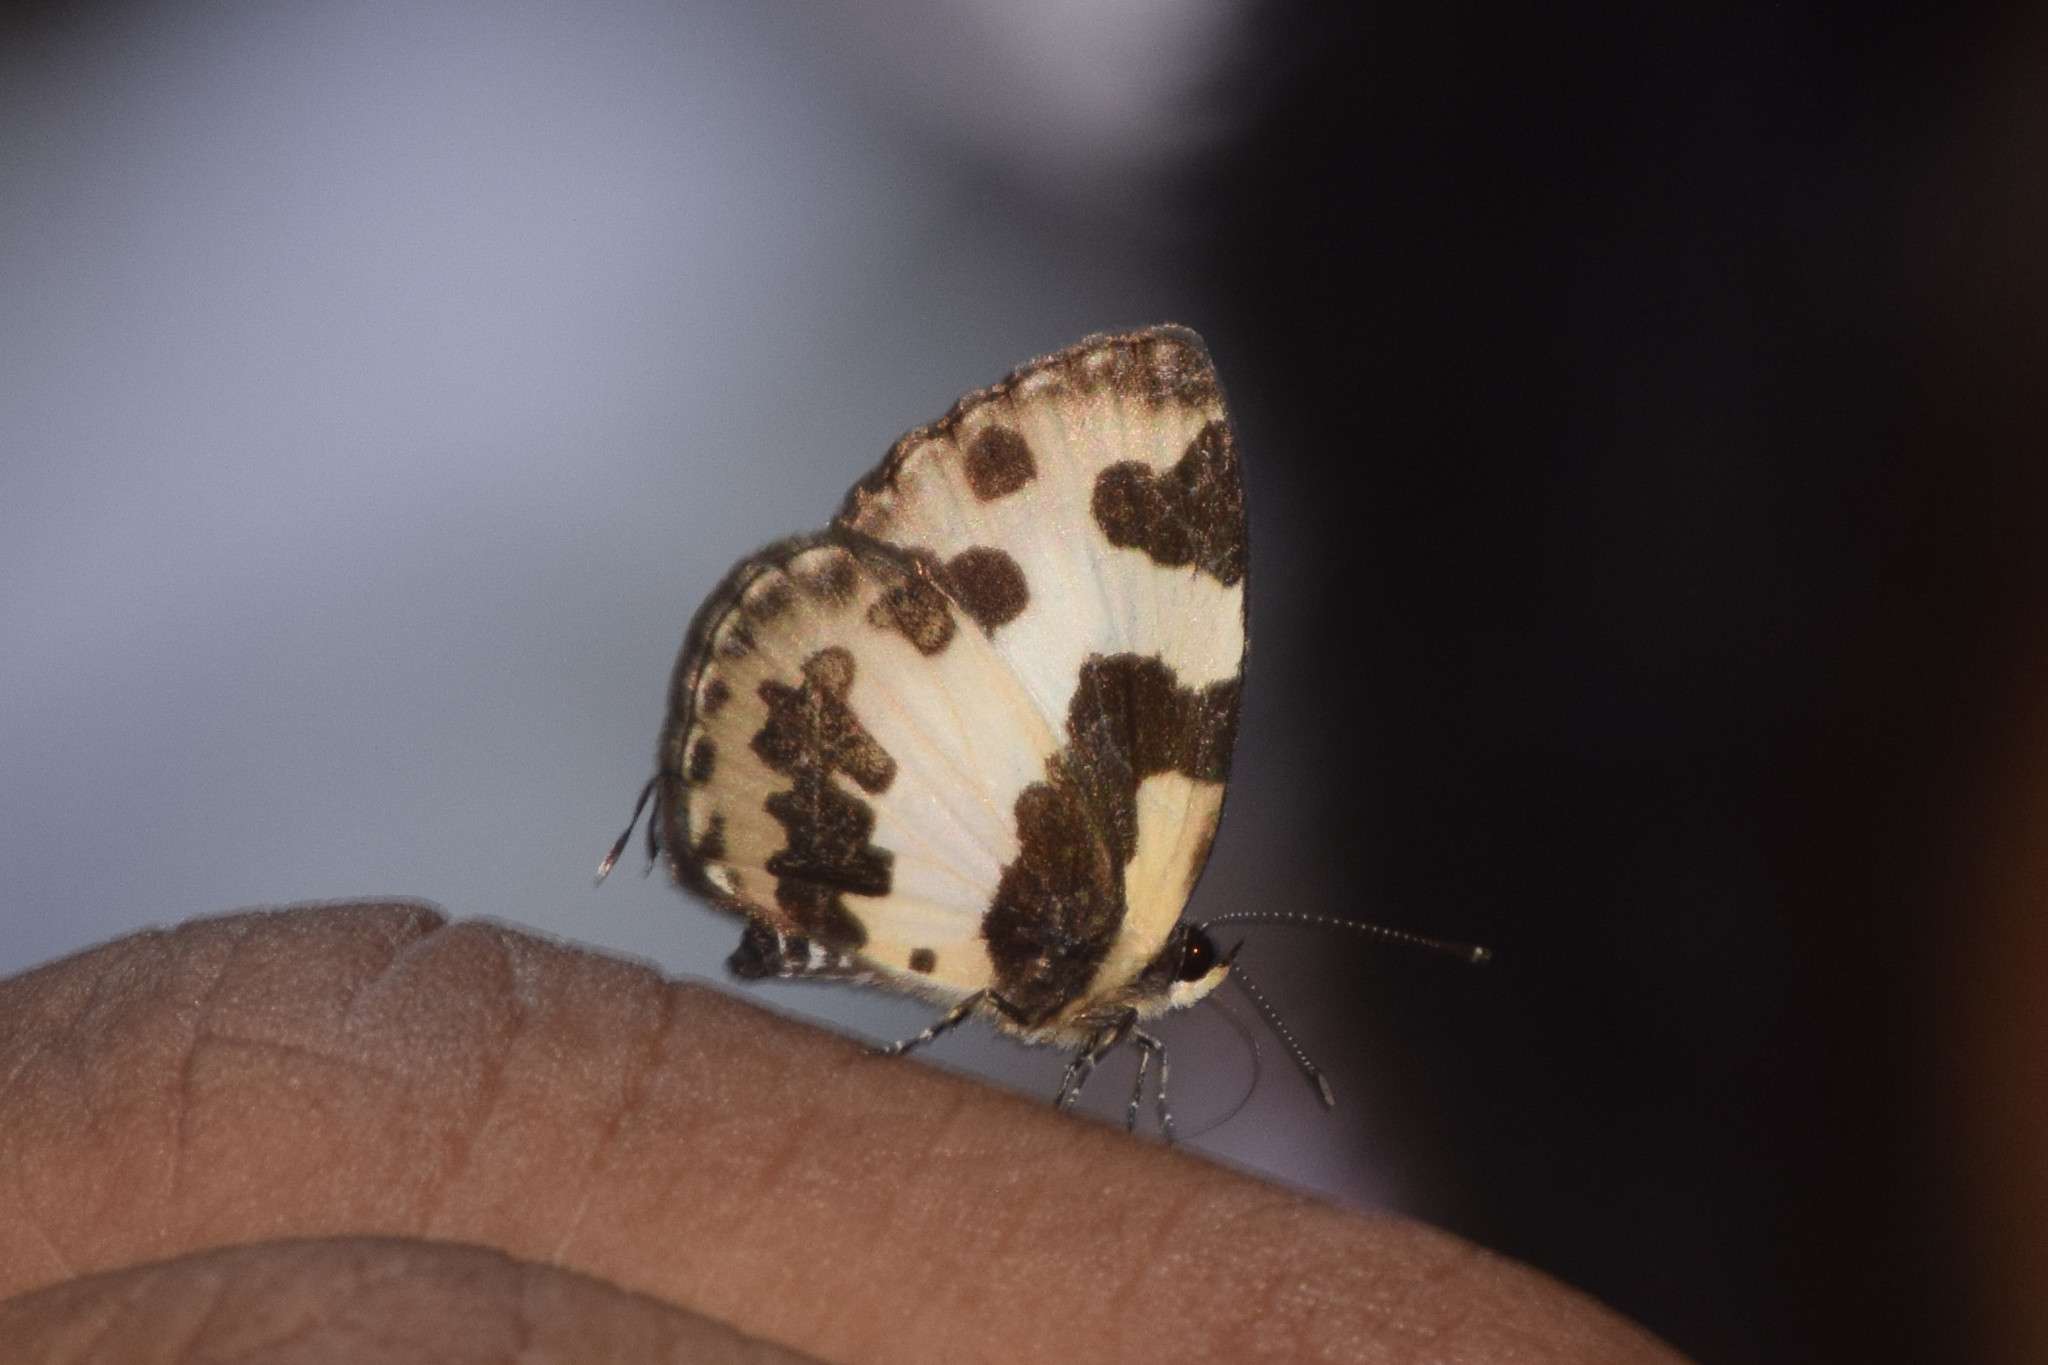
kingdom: Animalia
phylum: Arthropoda
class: Insecta
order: Lepidoptera
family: Lycaenidae
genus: Caleta
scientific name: Caleta elna
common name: Elbowed pierrot
